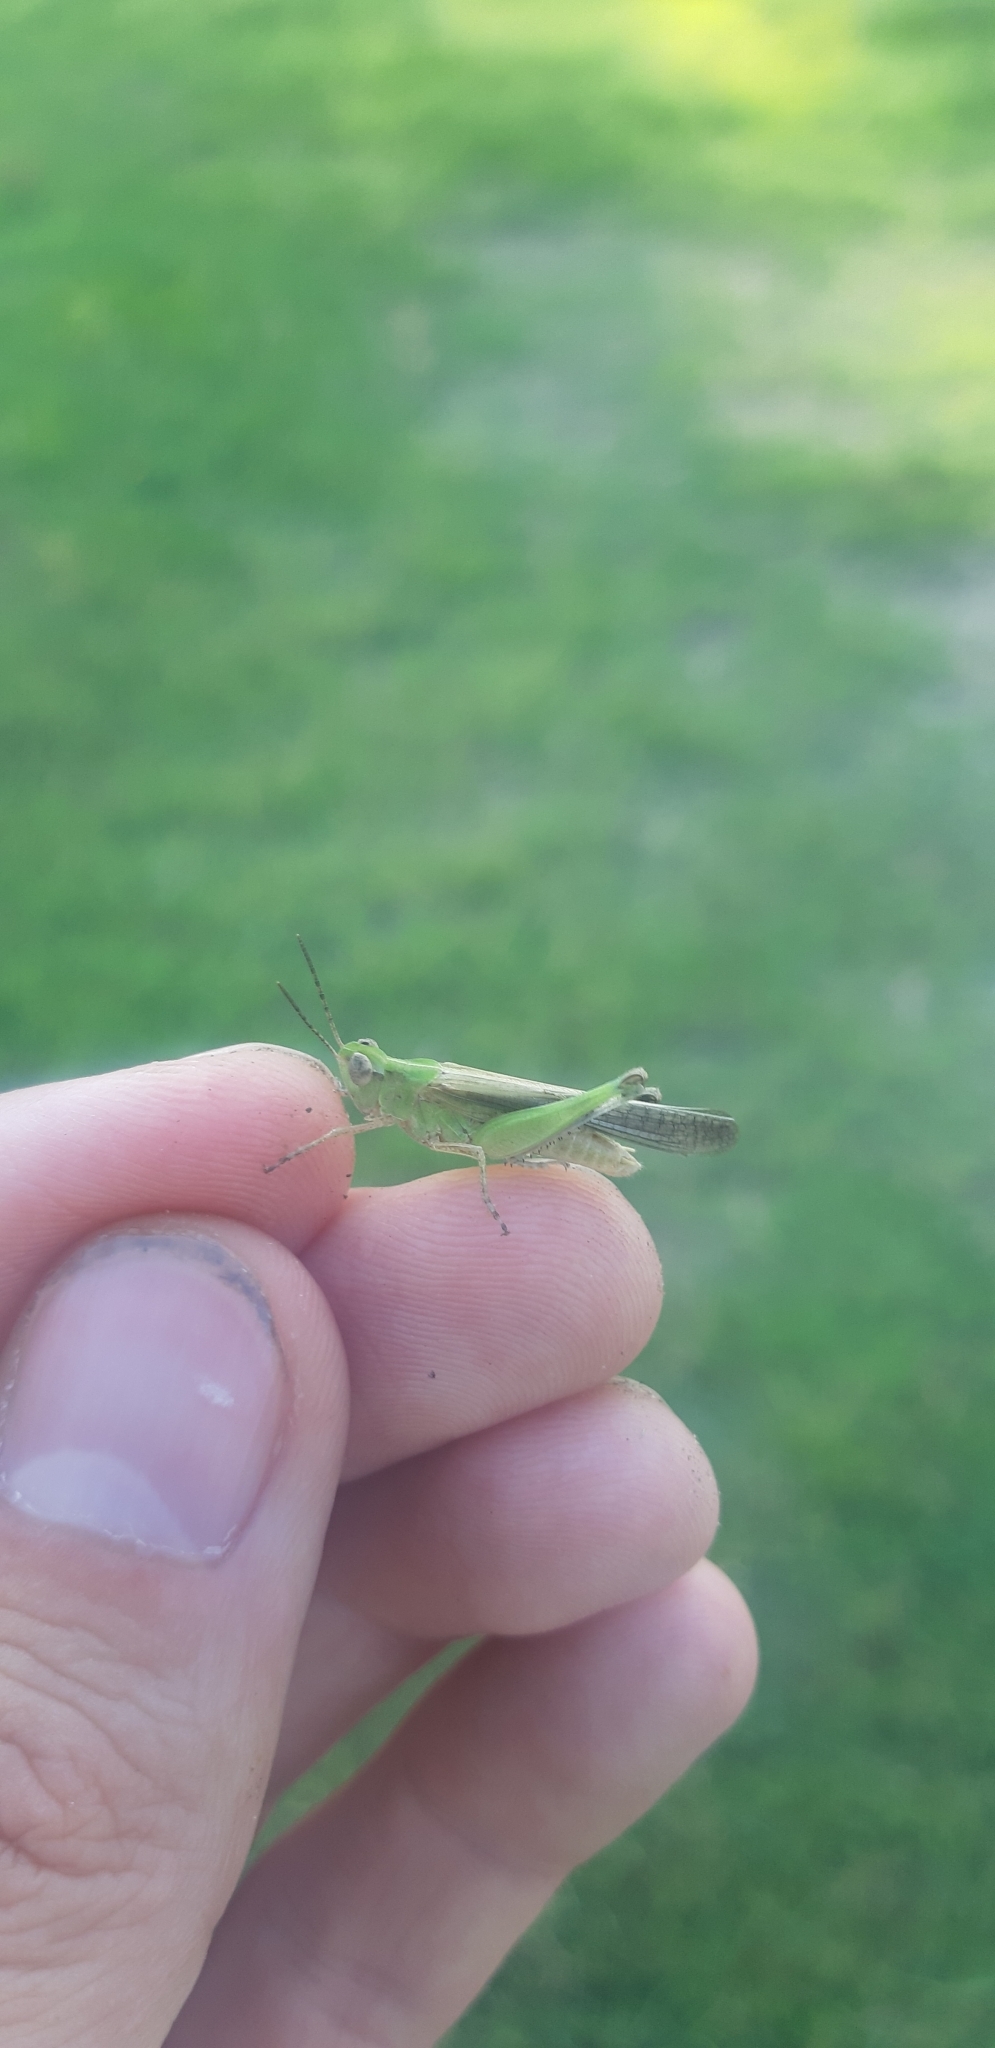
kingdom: Animalia
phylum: Arthropoda
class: Insecta
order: Orthoptera
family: Acrididae
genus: Aiolopus
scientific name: Aiolopus thalassinus
